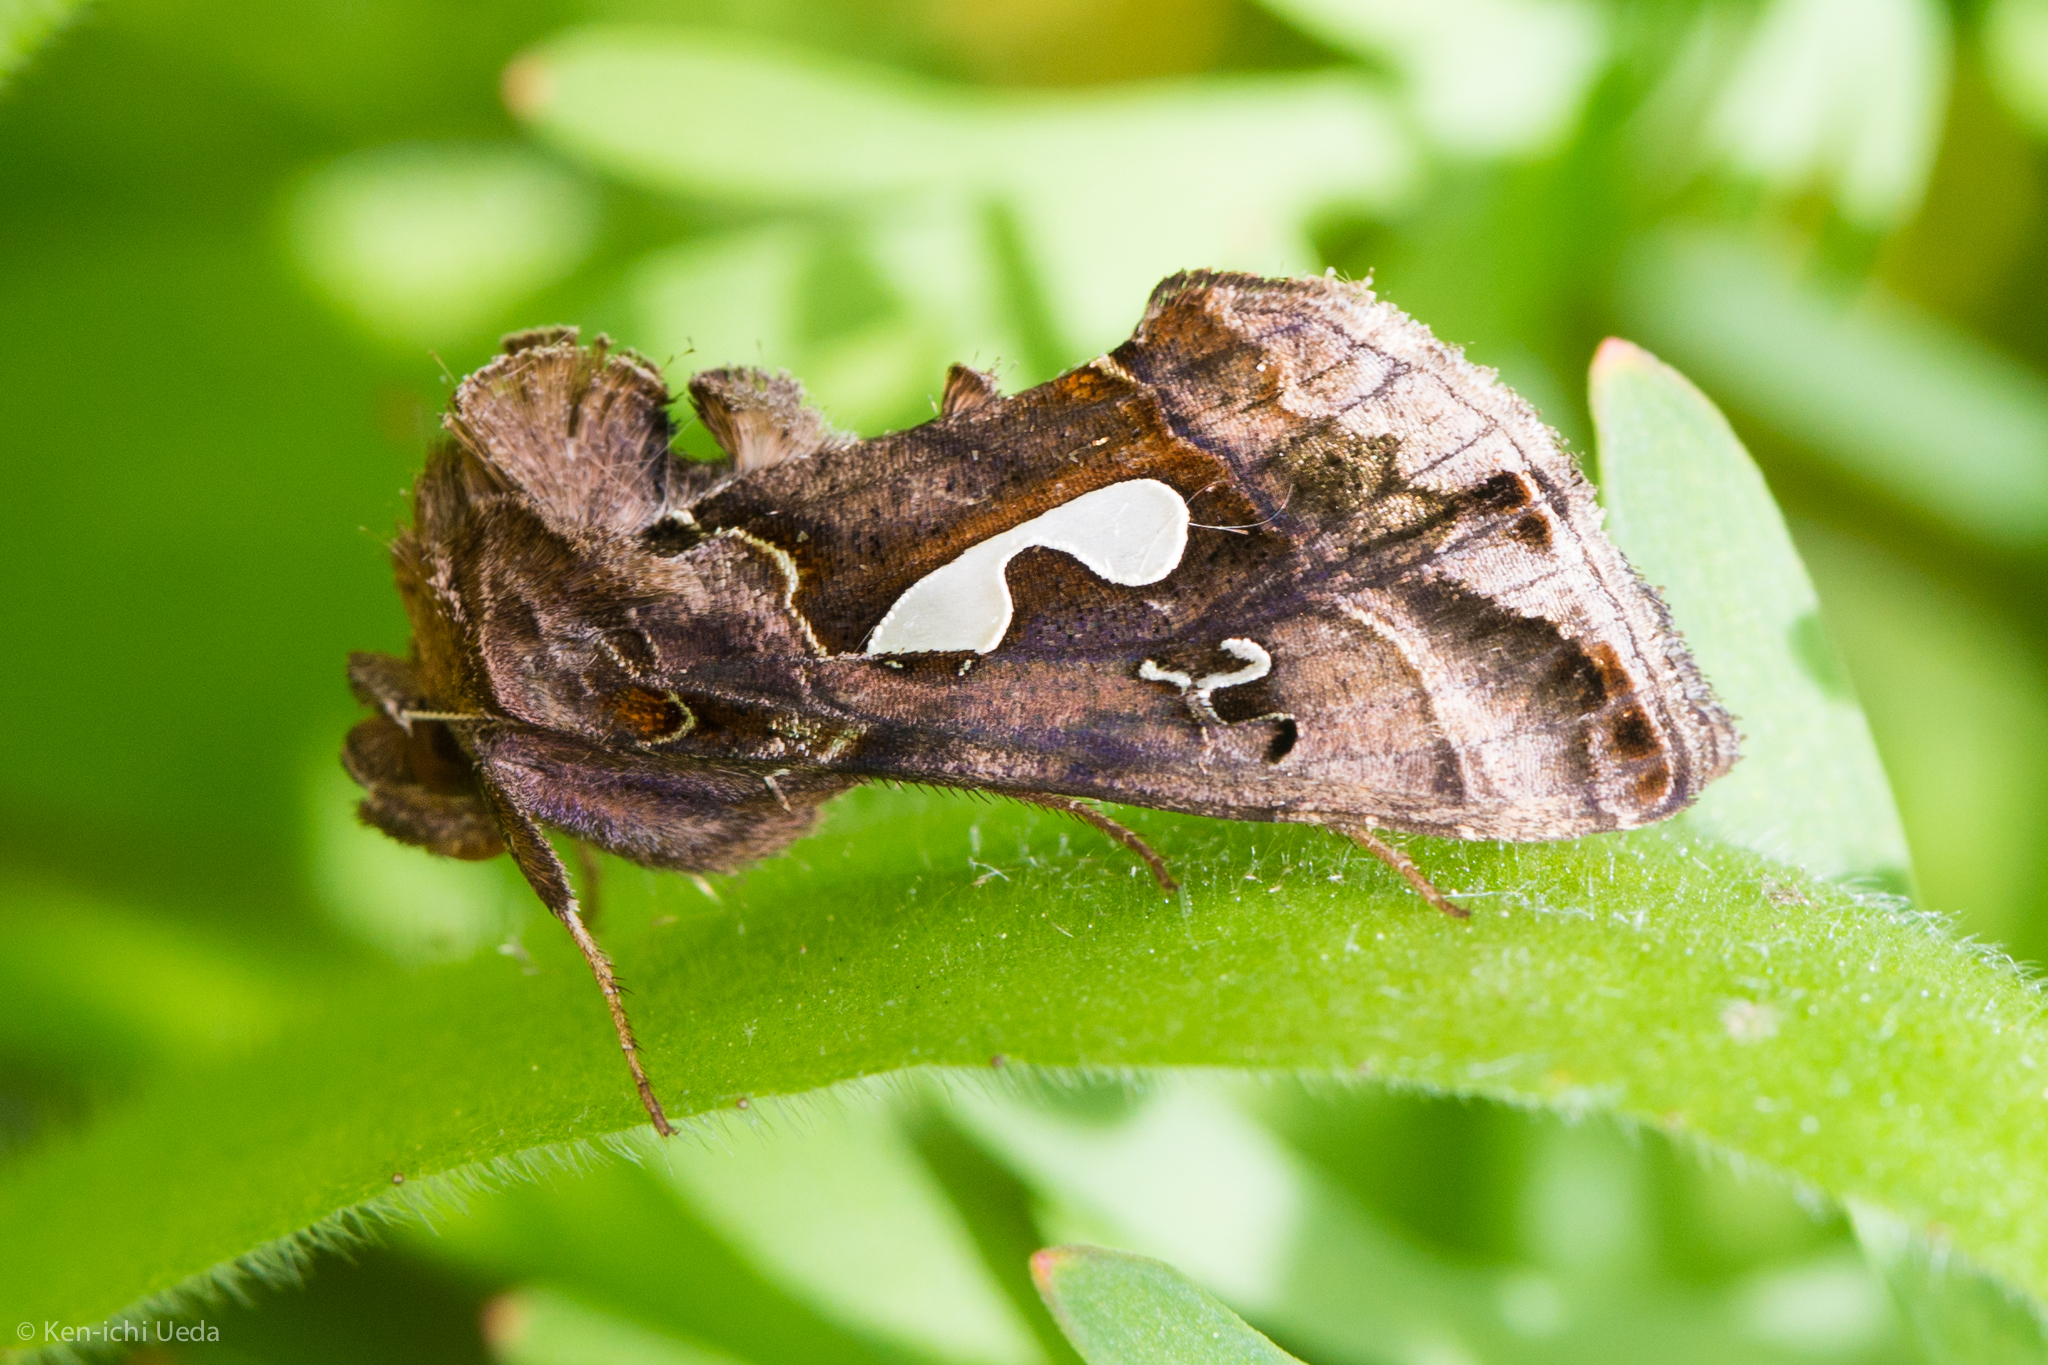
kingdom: Animalia
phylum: Arthropoda
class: Insecta
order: Lepidoptera
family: Noctuidae
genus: Megalographa
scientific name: Megalographa biloba
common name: Cutworm
